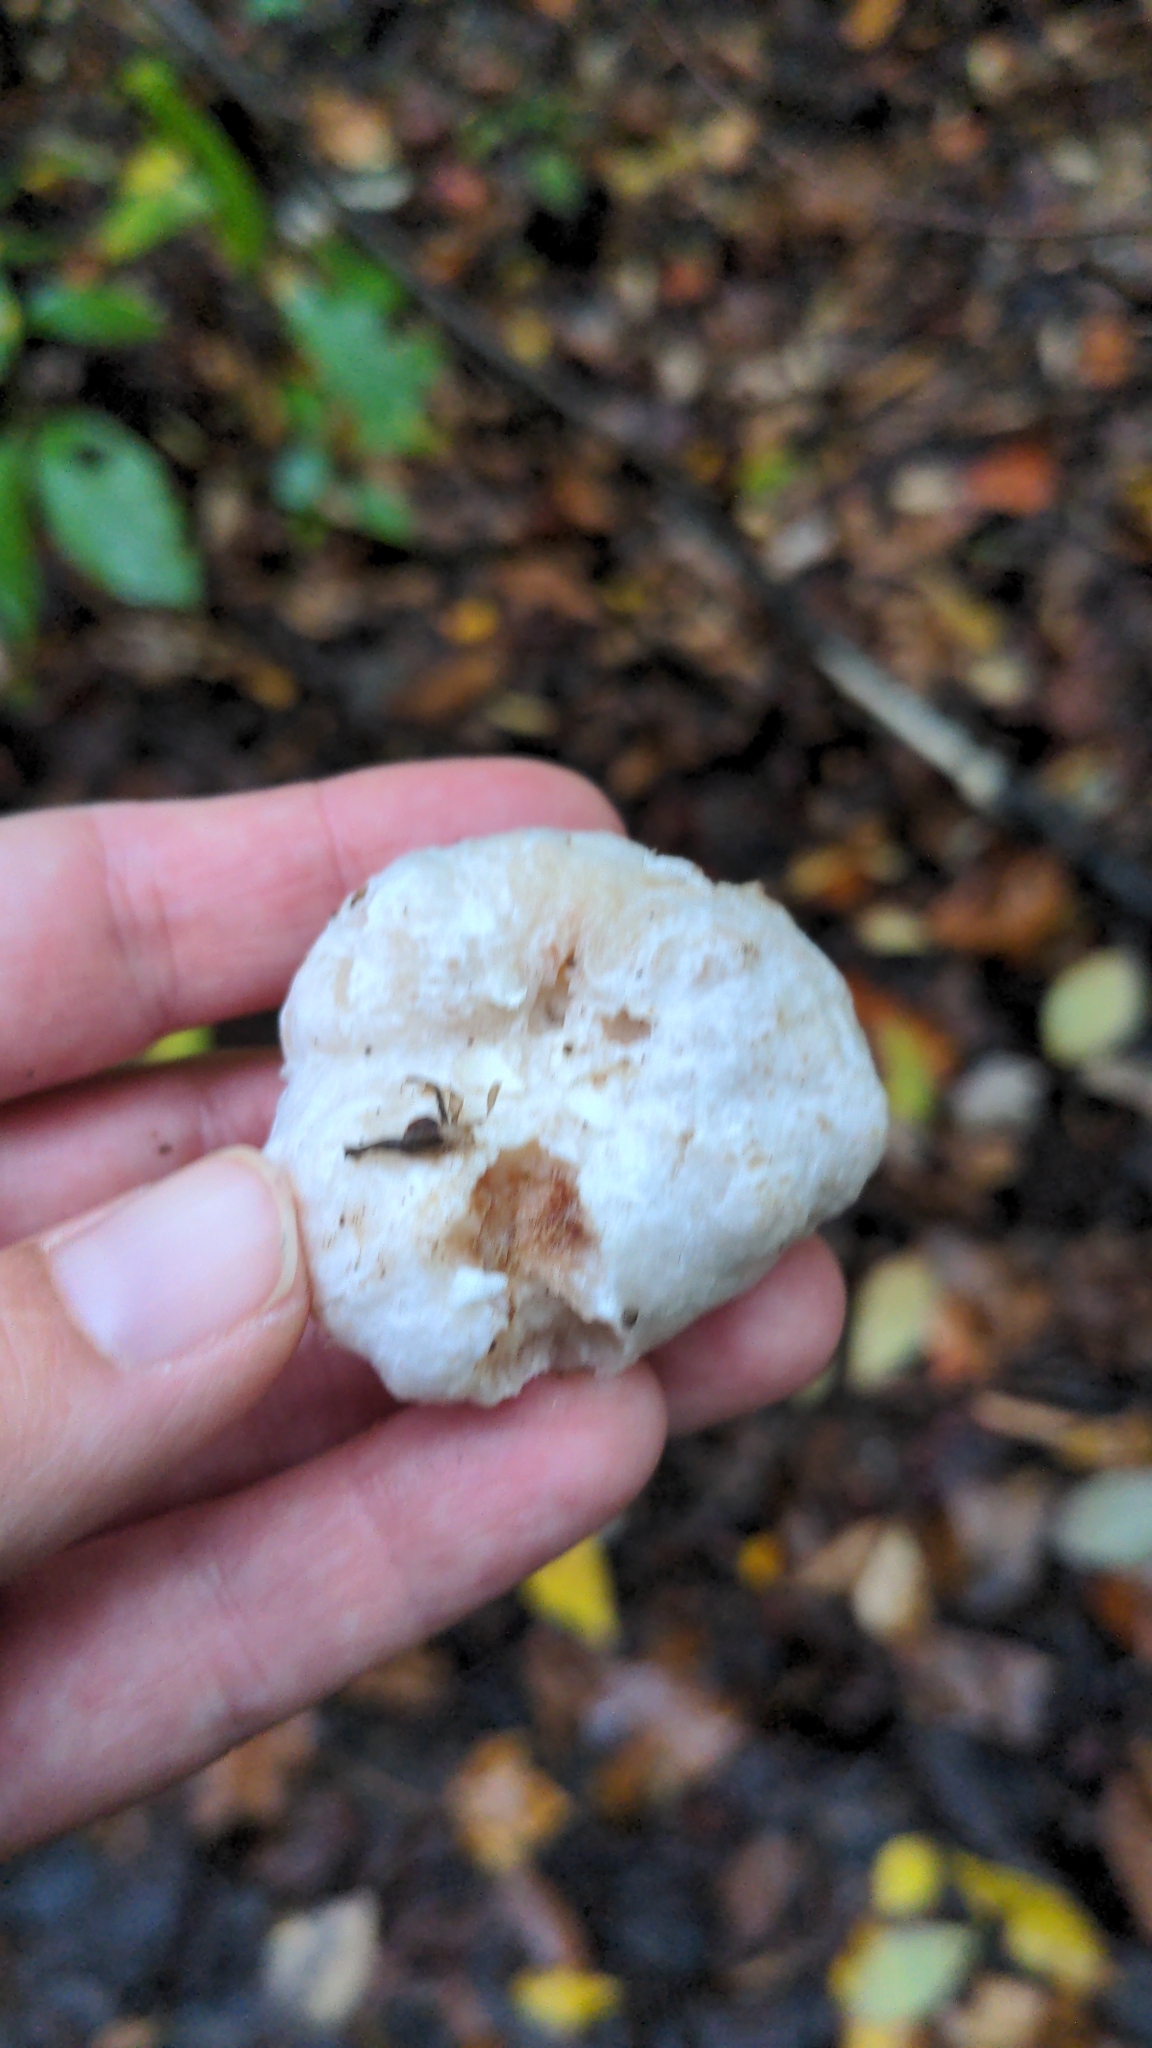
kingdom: Fungi
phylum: Basidiomycota
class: Agaricomycetes
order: Agaricales
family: Entolomataceae
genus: Entoloma
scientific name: Entoloma abortivum
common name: Aborted entoloma
